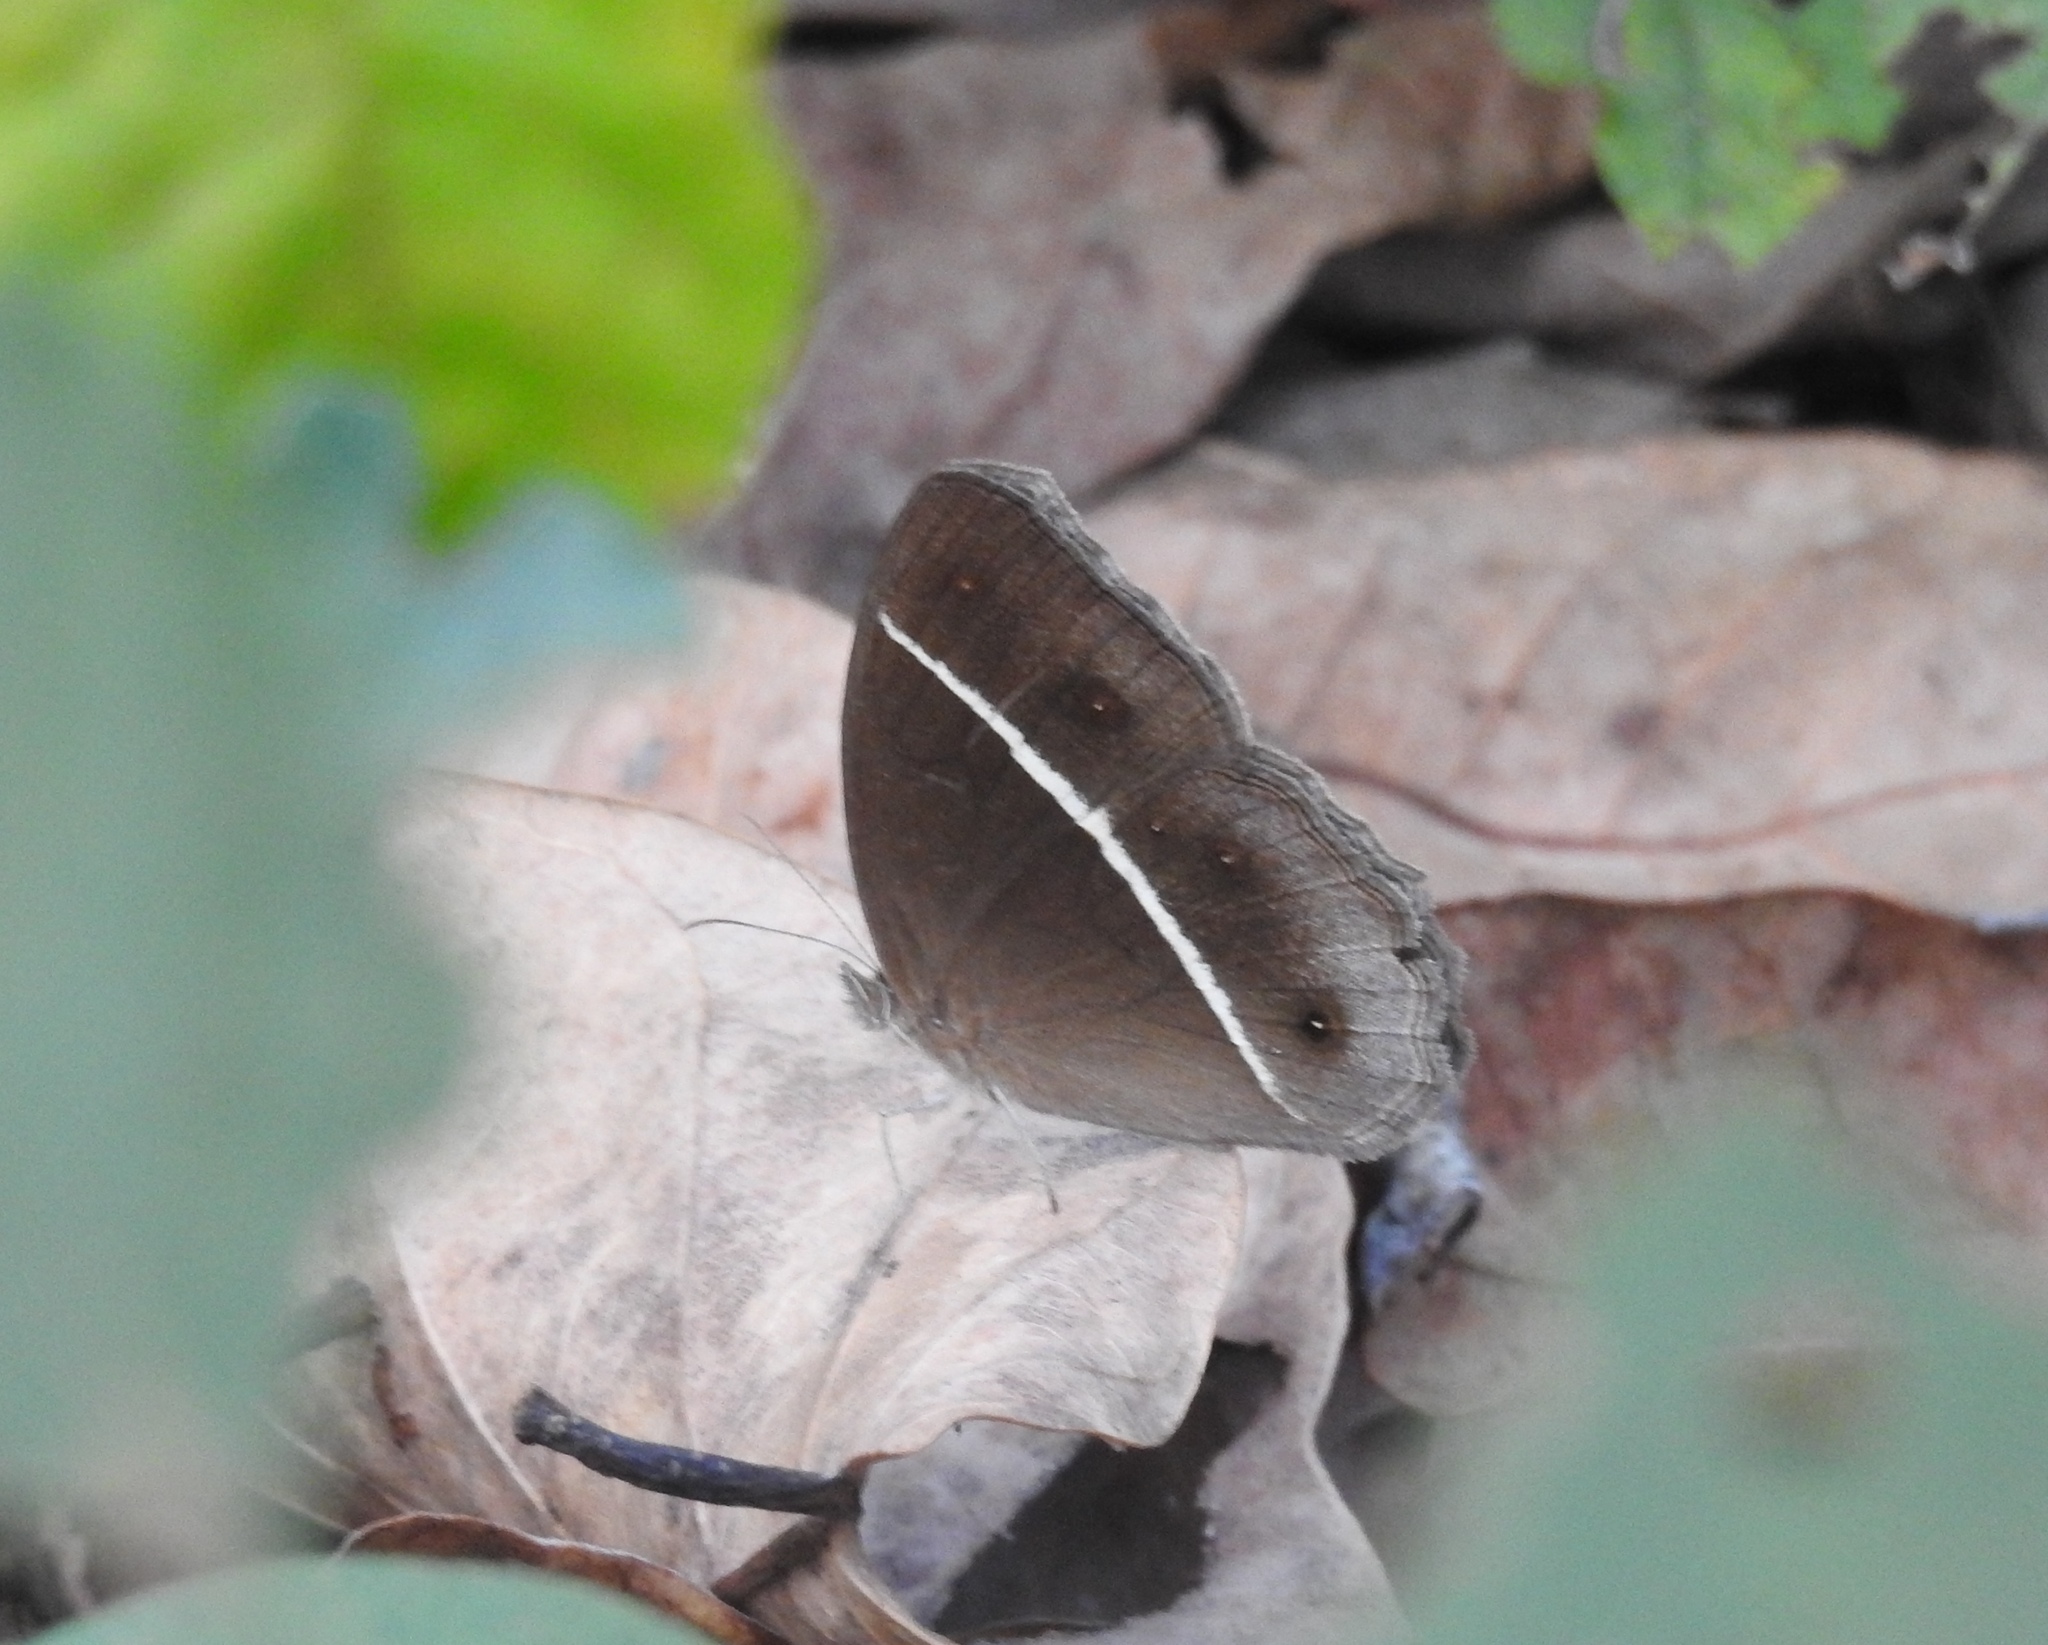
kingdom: Animalia
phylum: Arthropoda
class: Insecta
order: Lepidoptera
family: Nymphalidae
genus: Orsotriaena
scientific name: Orsotriaena medus
